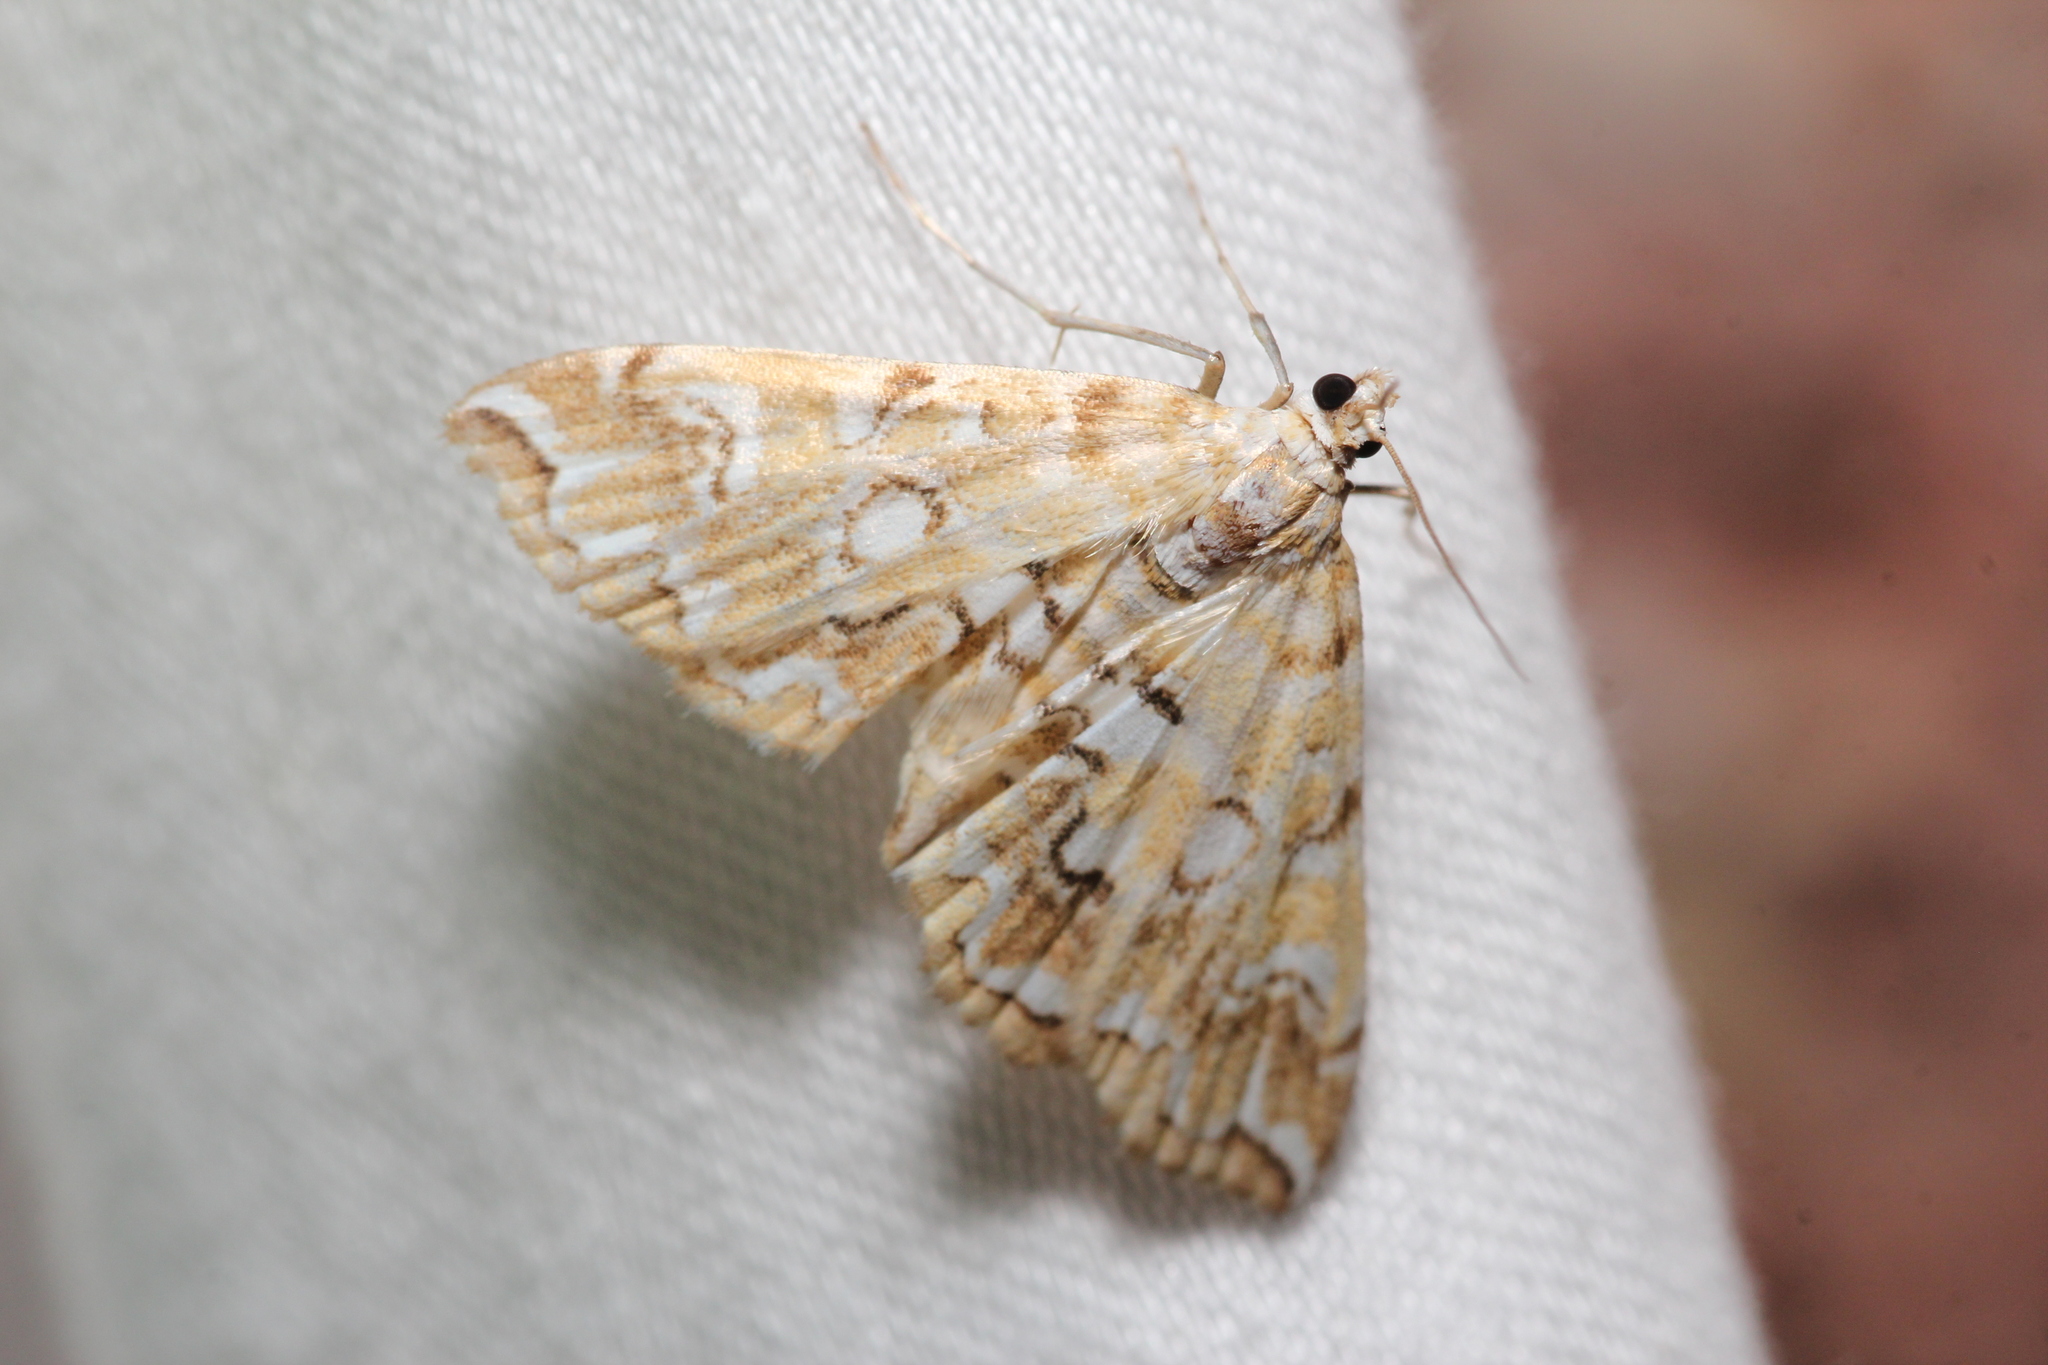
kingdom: Animalia
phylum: Arthropoda
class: Insecta
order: Lepidoptera
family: Crambidae
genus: Elophila
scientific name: Elophila icciusalis
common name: Pondside pyralid moth
